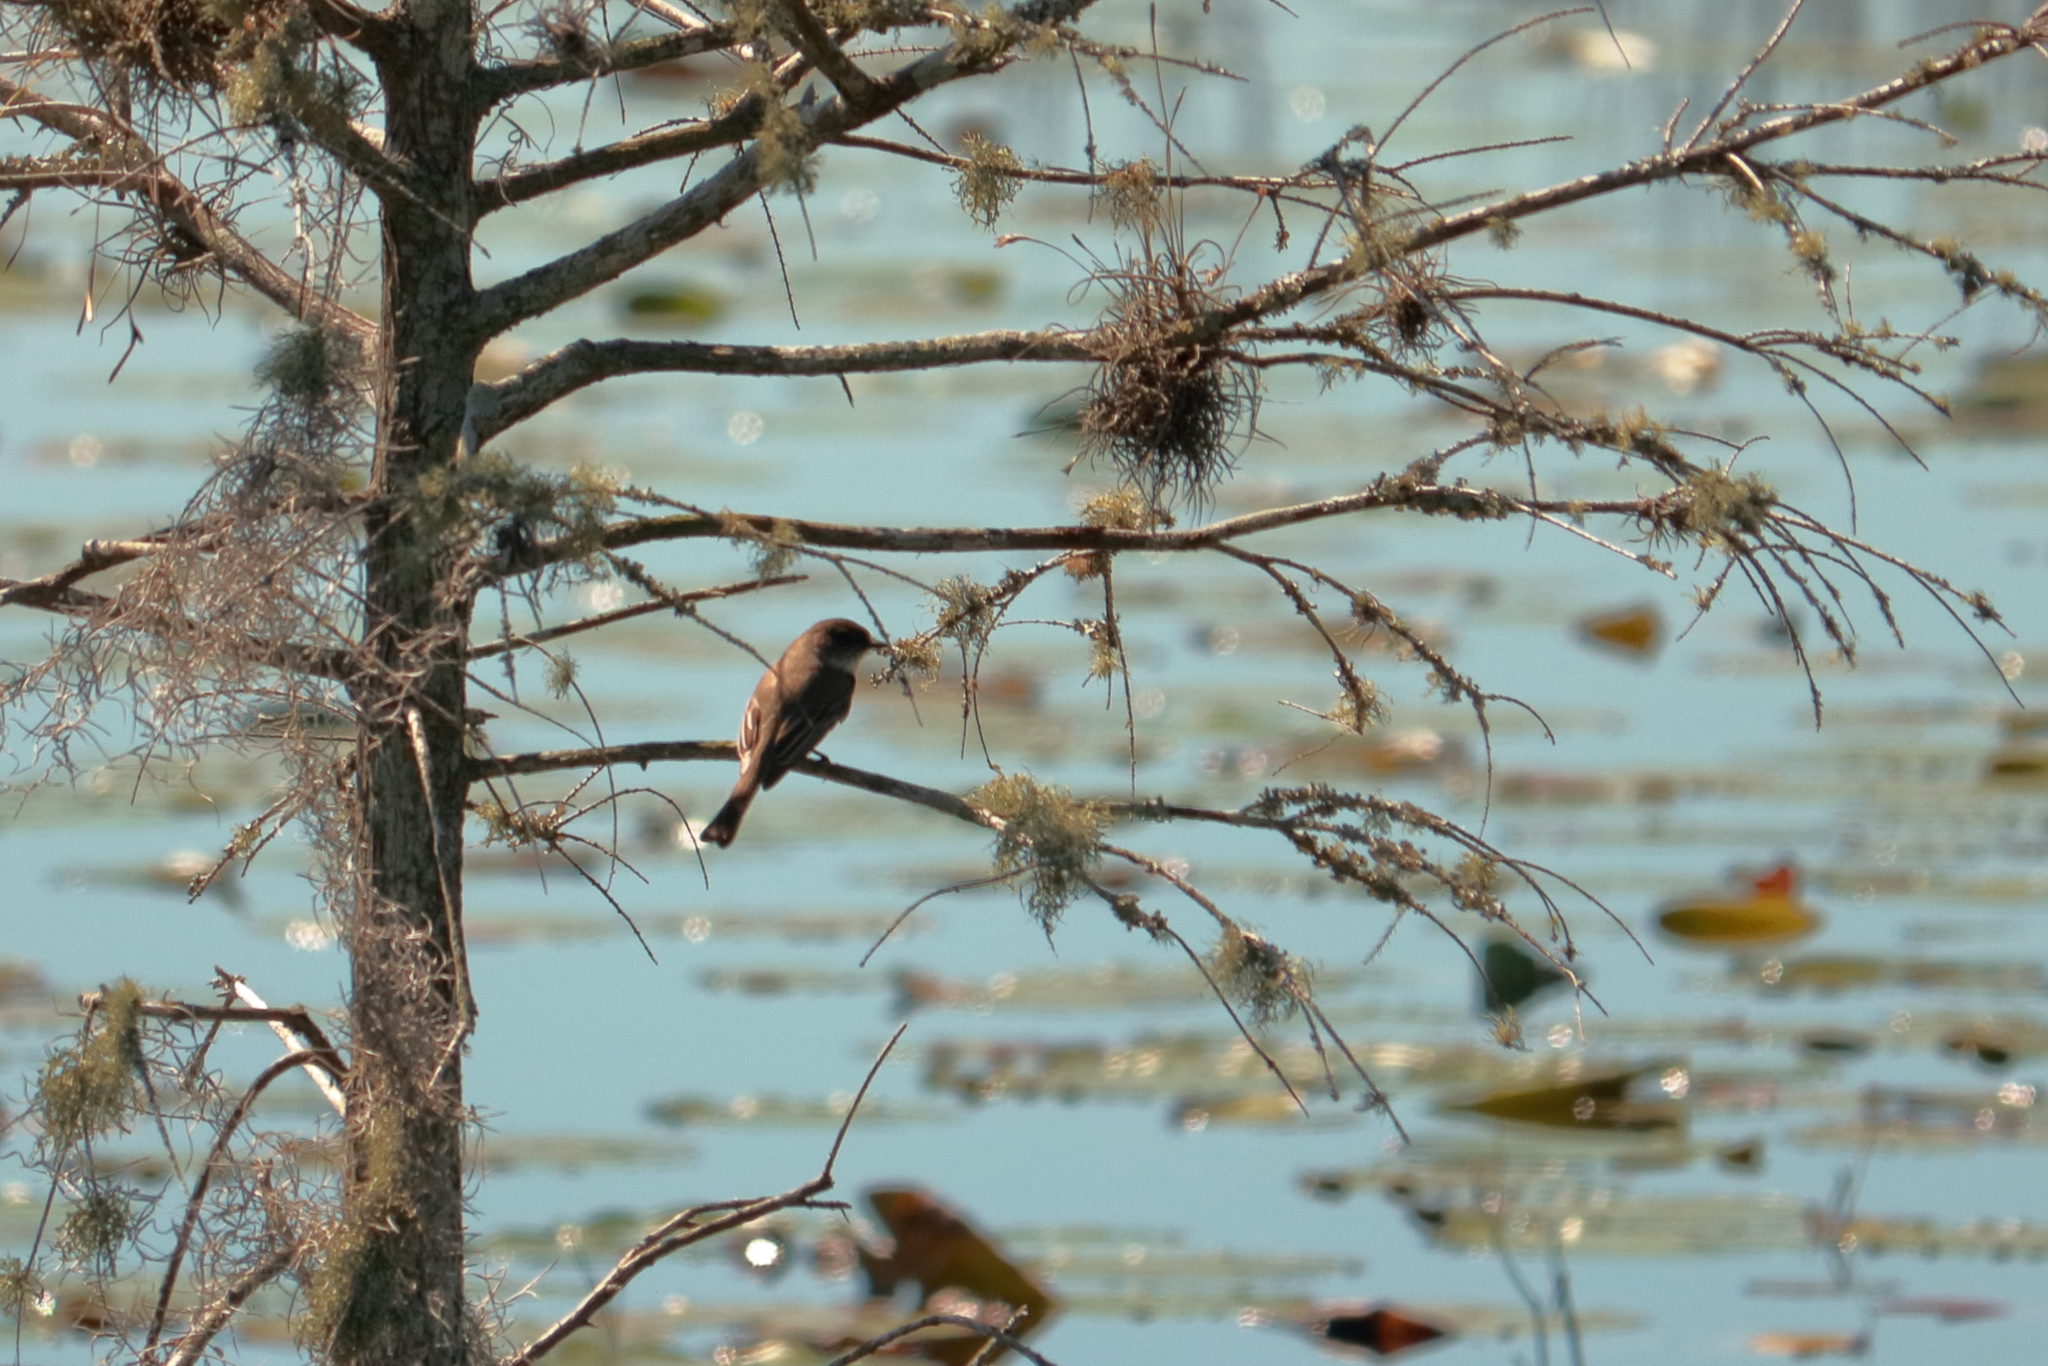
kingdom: Animalia
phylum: Chordata
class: Aves
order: Passeriformes
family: Tyrannidae
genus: Sayornis
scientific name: Sayornis phoebe
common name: Eastern phoebe
